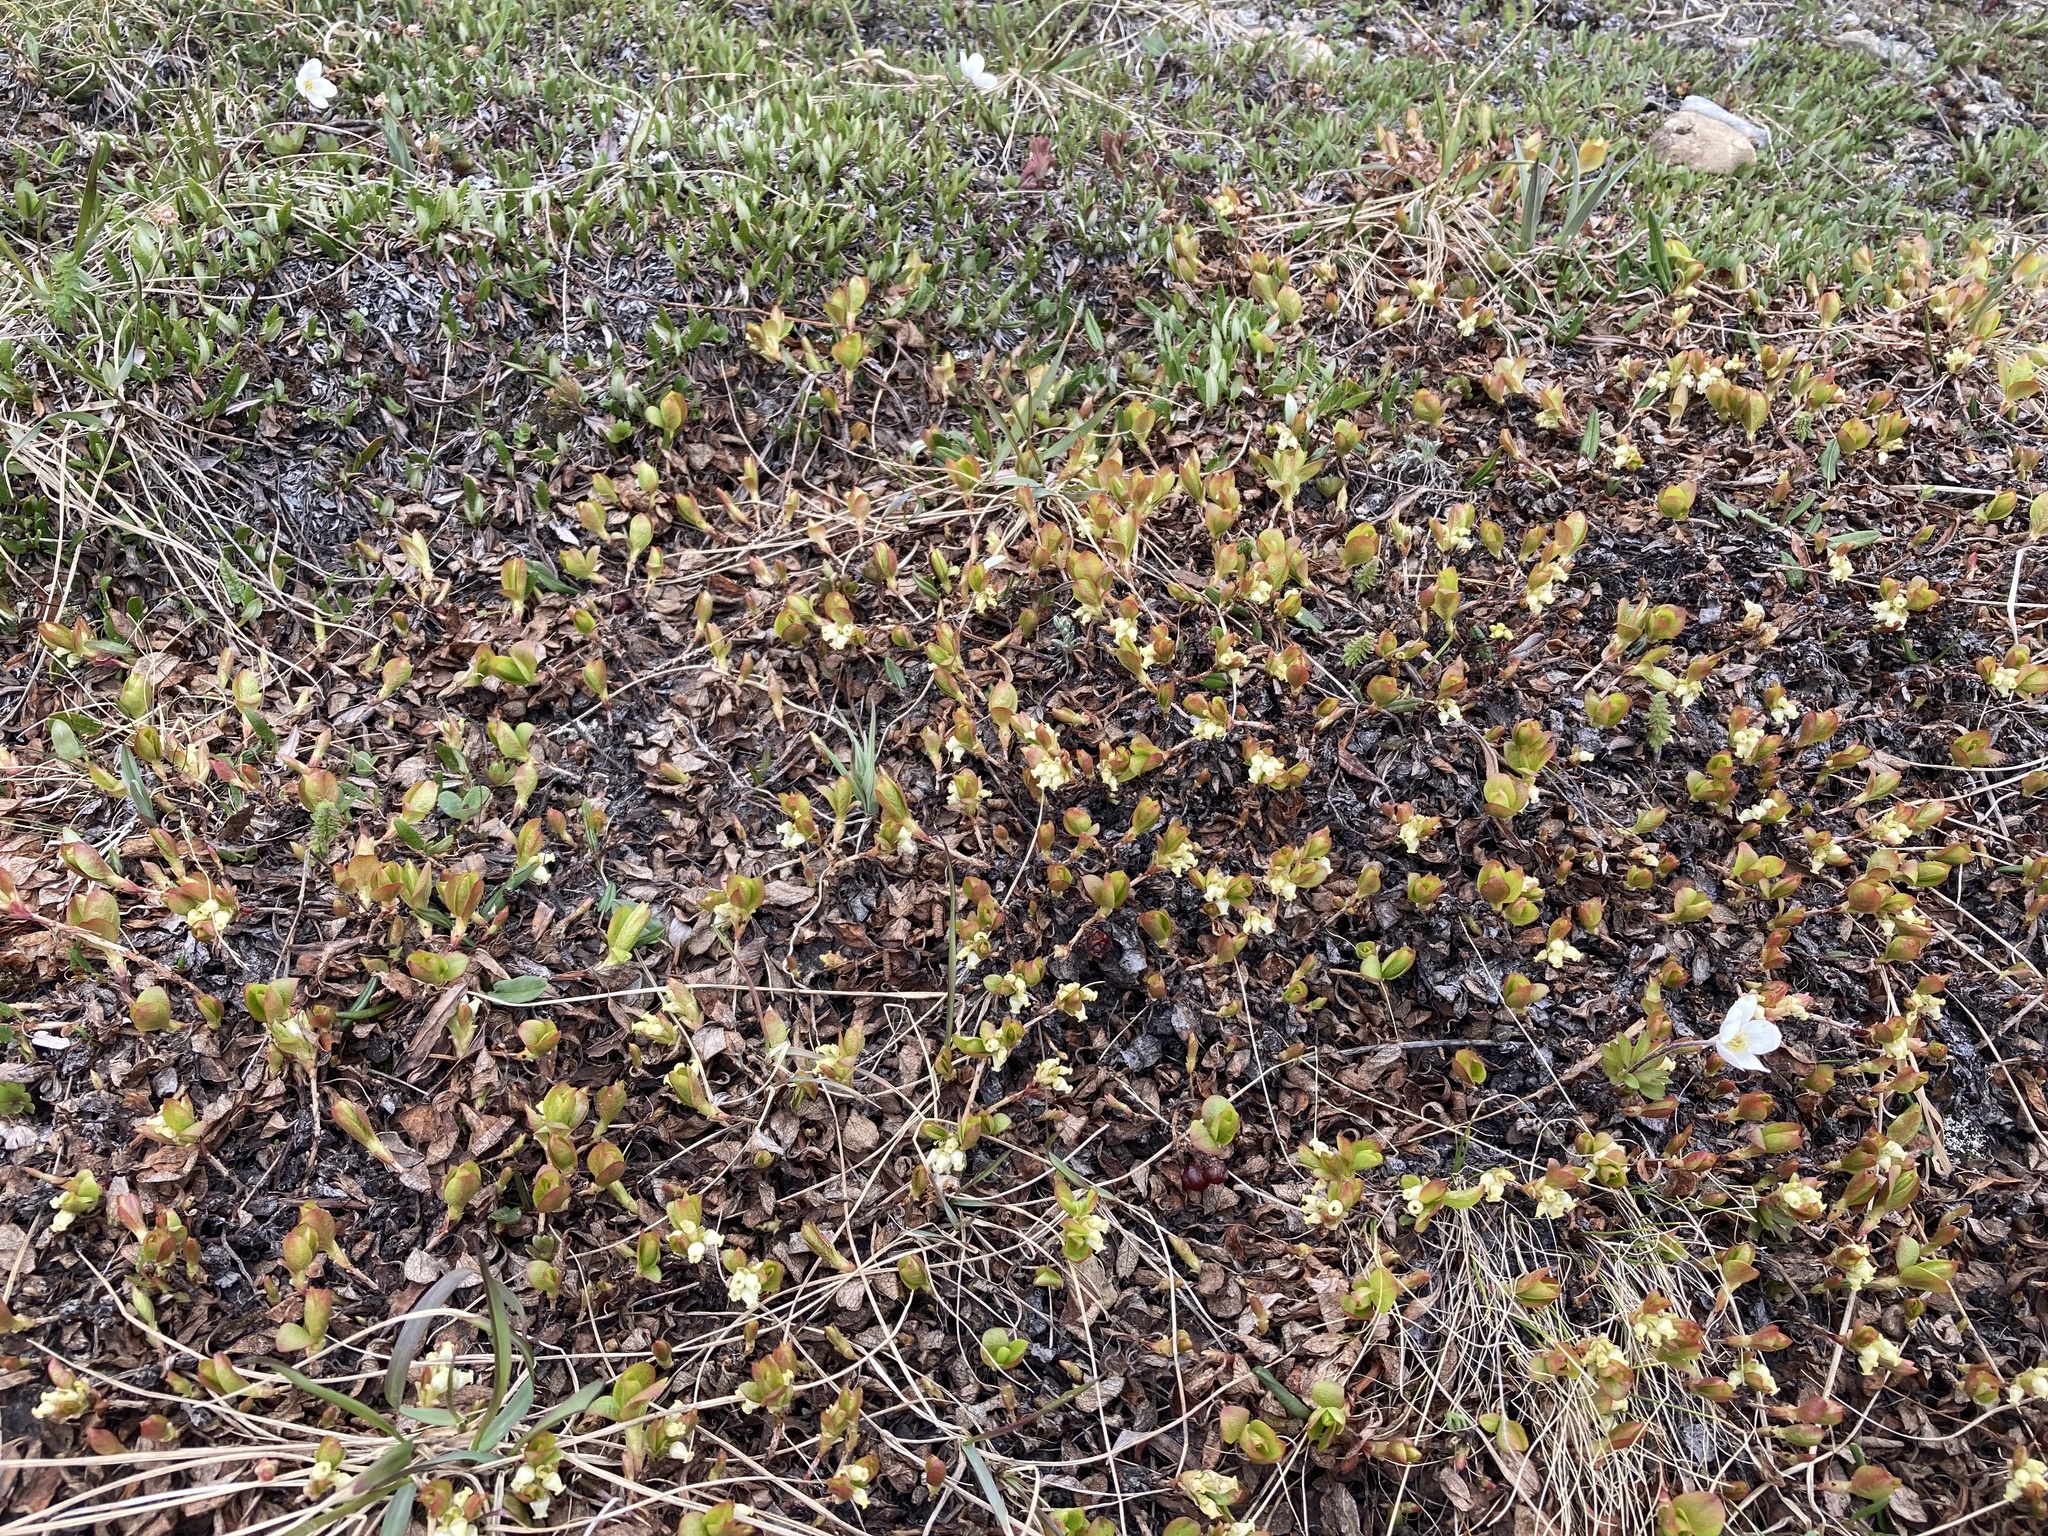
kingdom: Plantae
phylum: Tracheophyta
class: Magnoliopsida
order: Ericales
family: Ericaceae
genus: Arctostaphylos
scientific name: Arctostaphylos rubra
